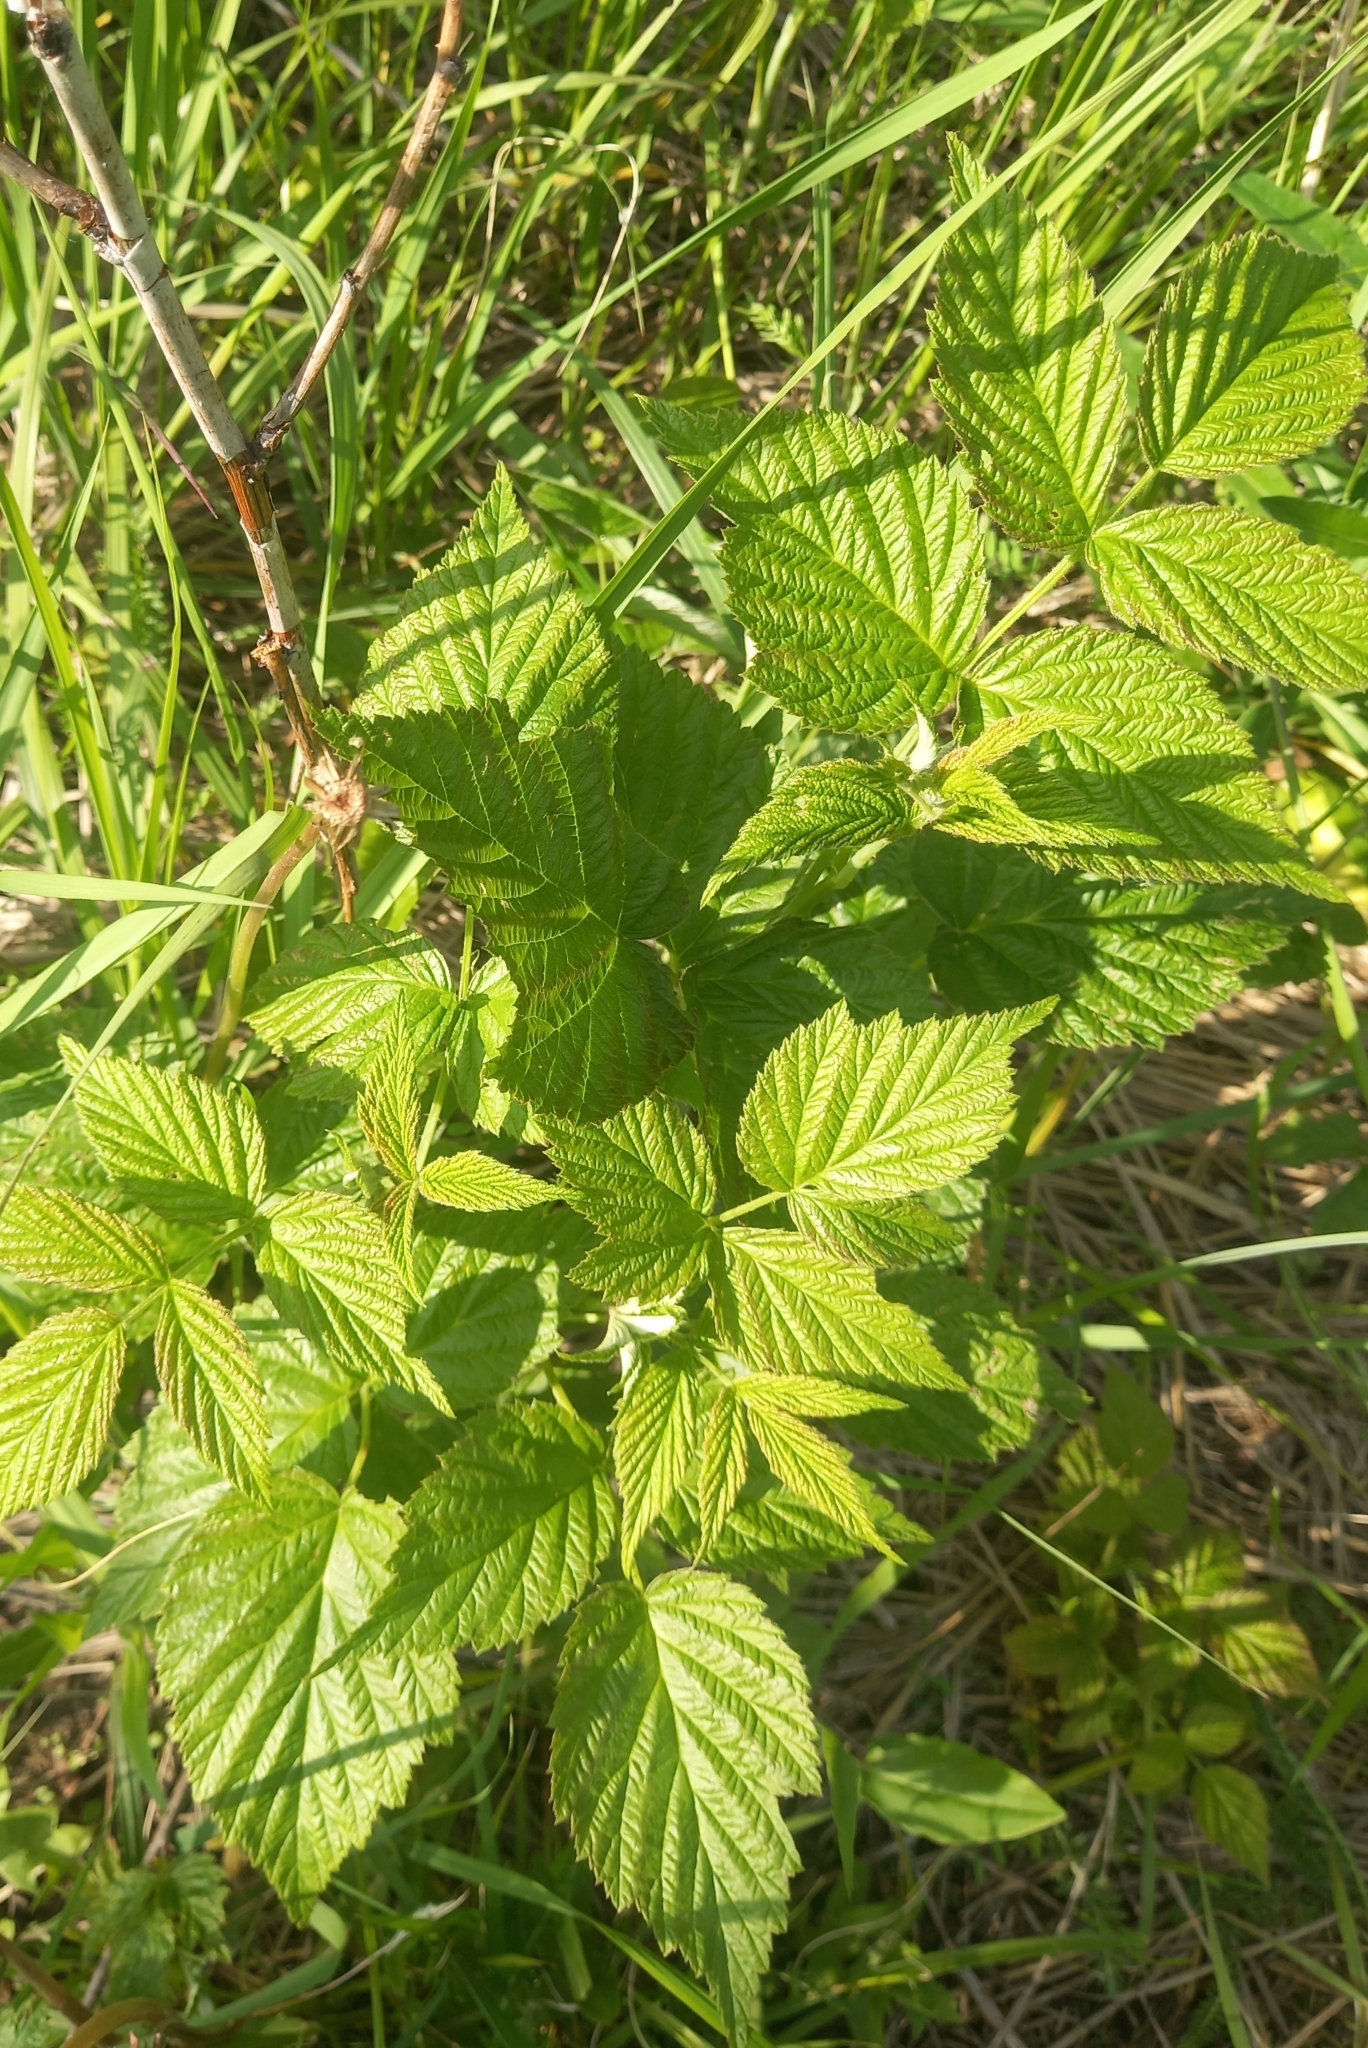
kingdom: Plantae
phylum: Tracheophyta
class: Magnoliopsida
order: Rosales
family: Rosaceae
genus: Rubus
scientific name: Rubus idaeus
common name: Raspberry
